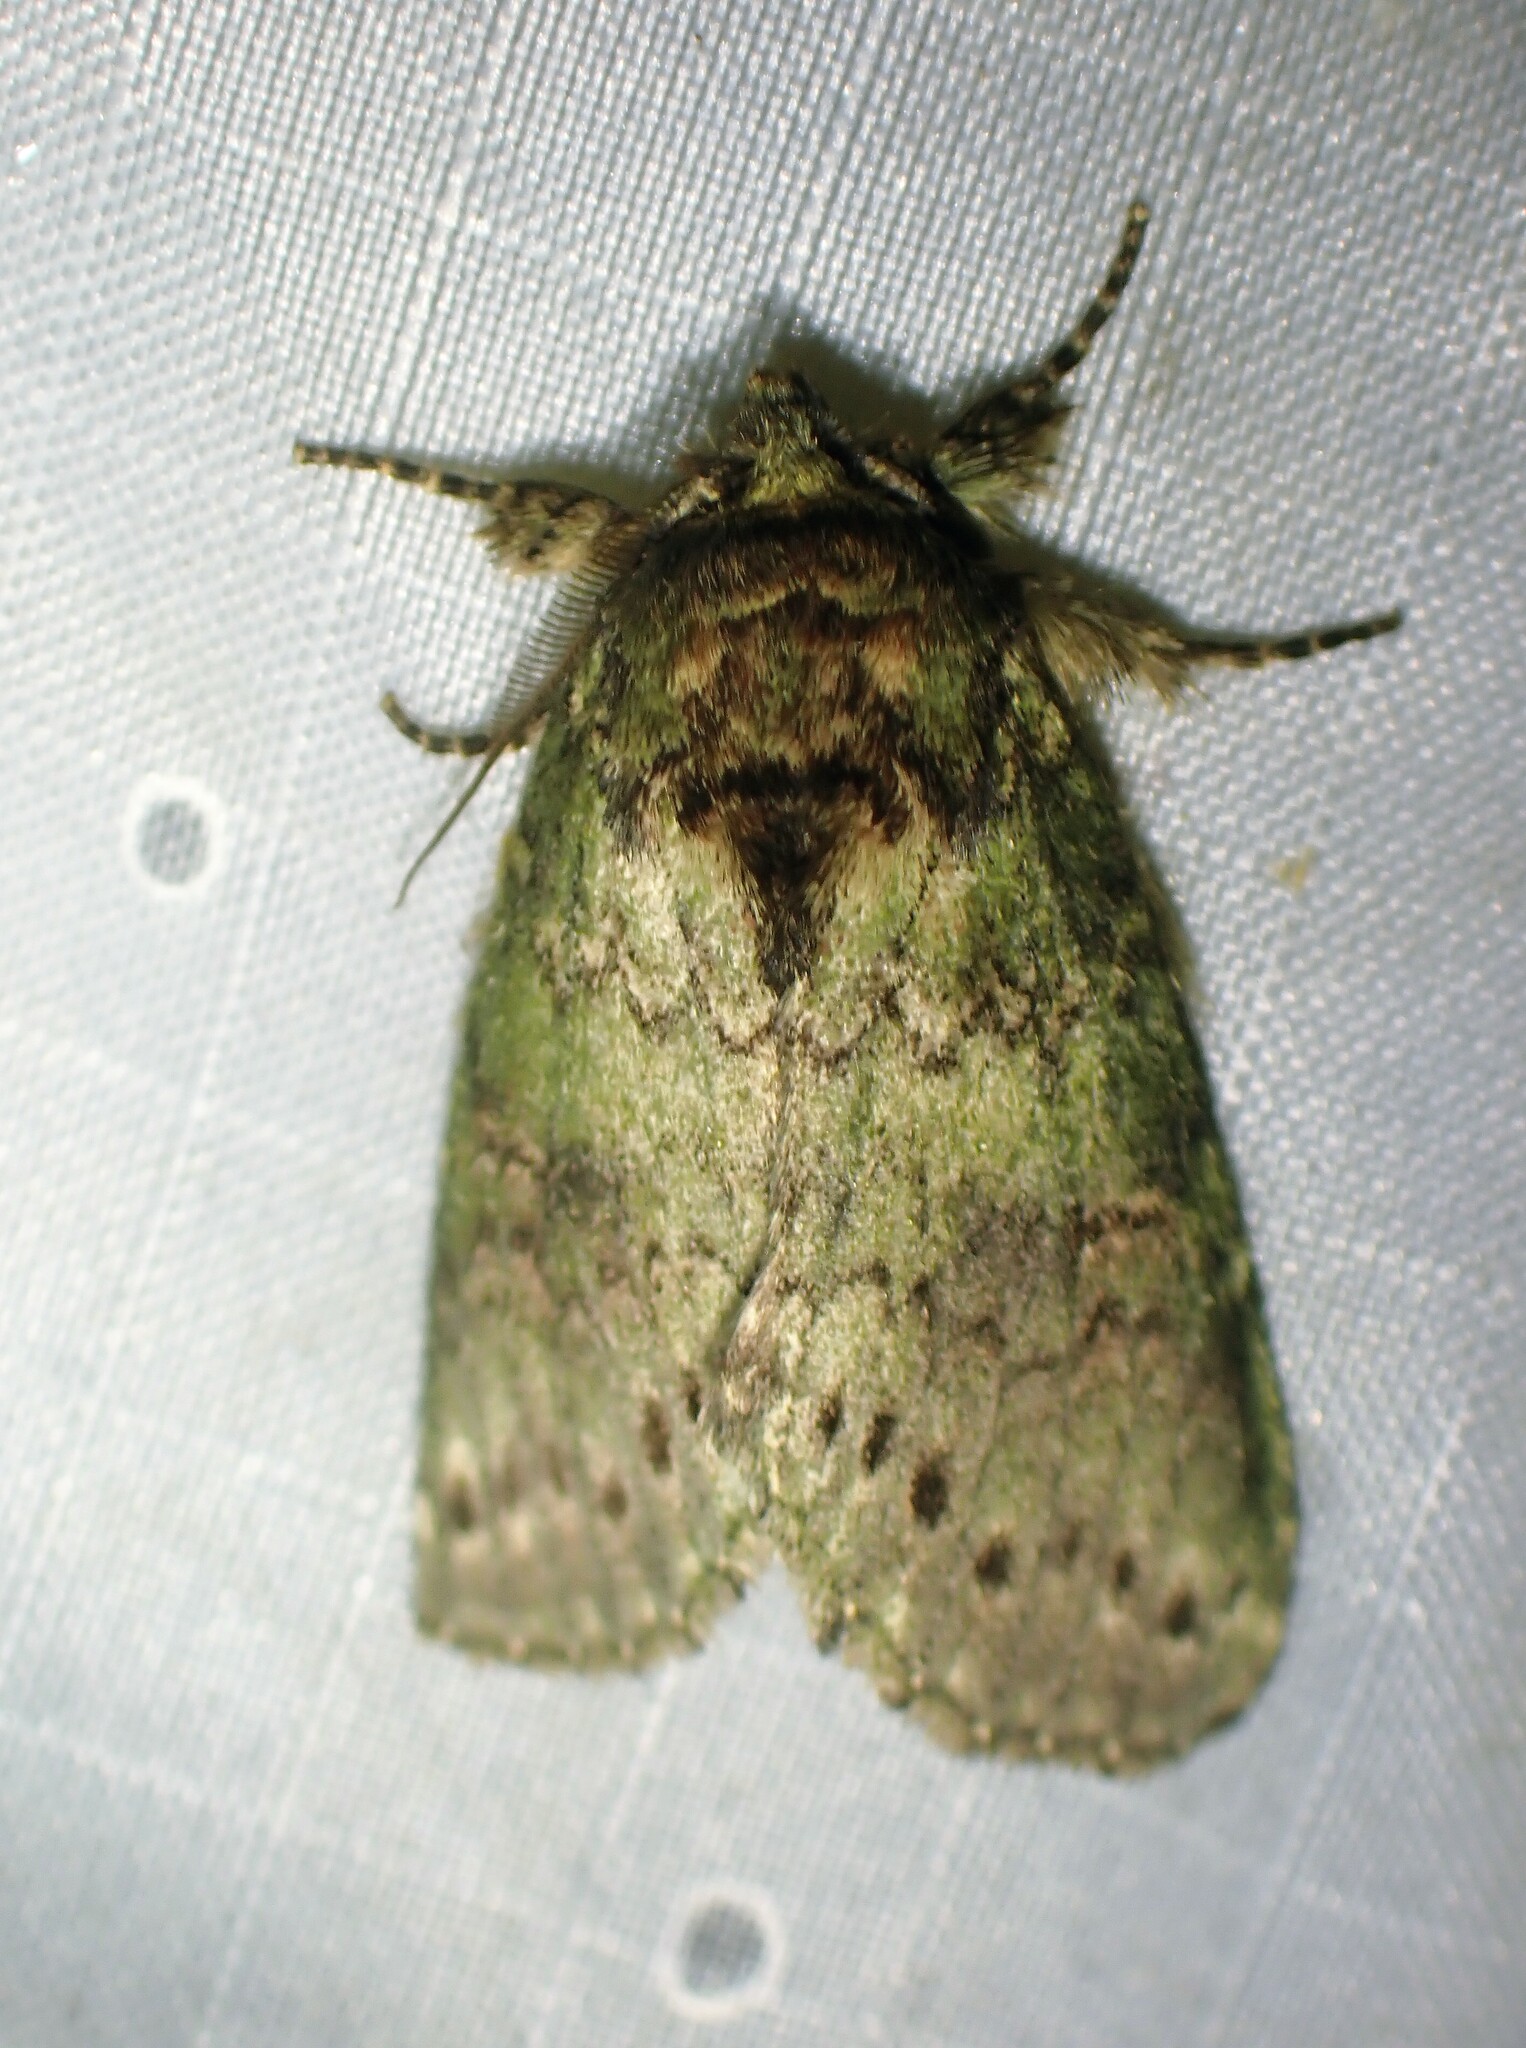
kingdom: Animalia
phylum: Arthropoda
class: Insecta
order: Lepidoptera
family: Notodontidae
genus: Disphragis
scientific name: Disphragis Cecrita biundata
